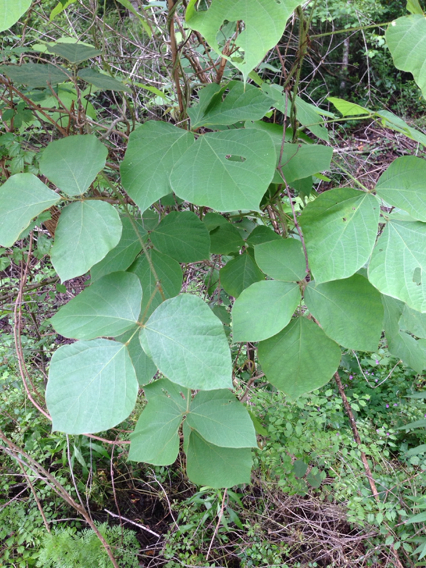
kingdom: Plantae
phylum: Tracheophyta
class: Magnoliopsida
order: Fabales
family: Fabaceae
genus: Pueraria
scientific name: Pueraria montana
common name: Kudzu
